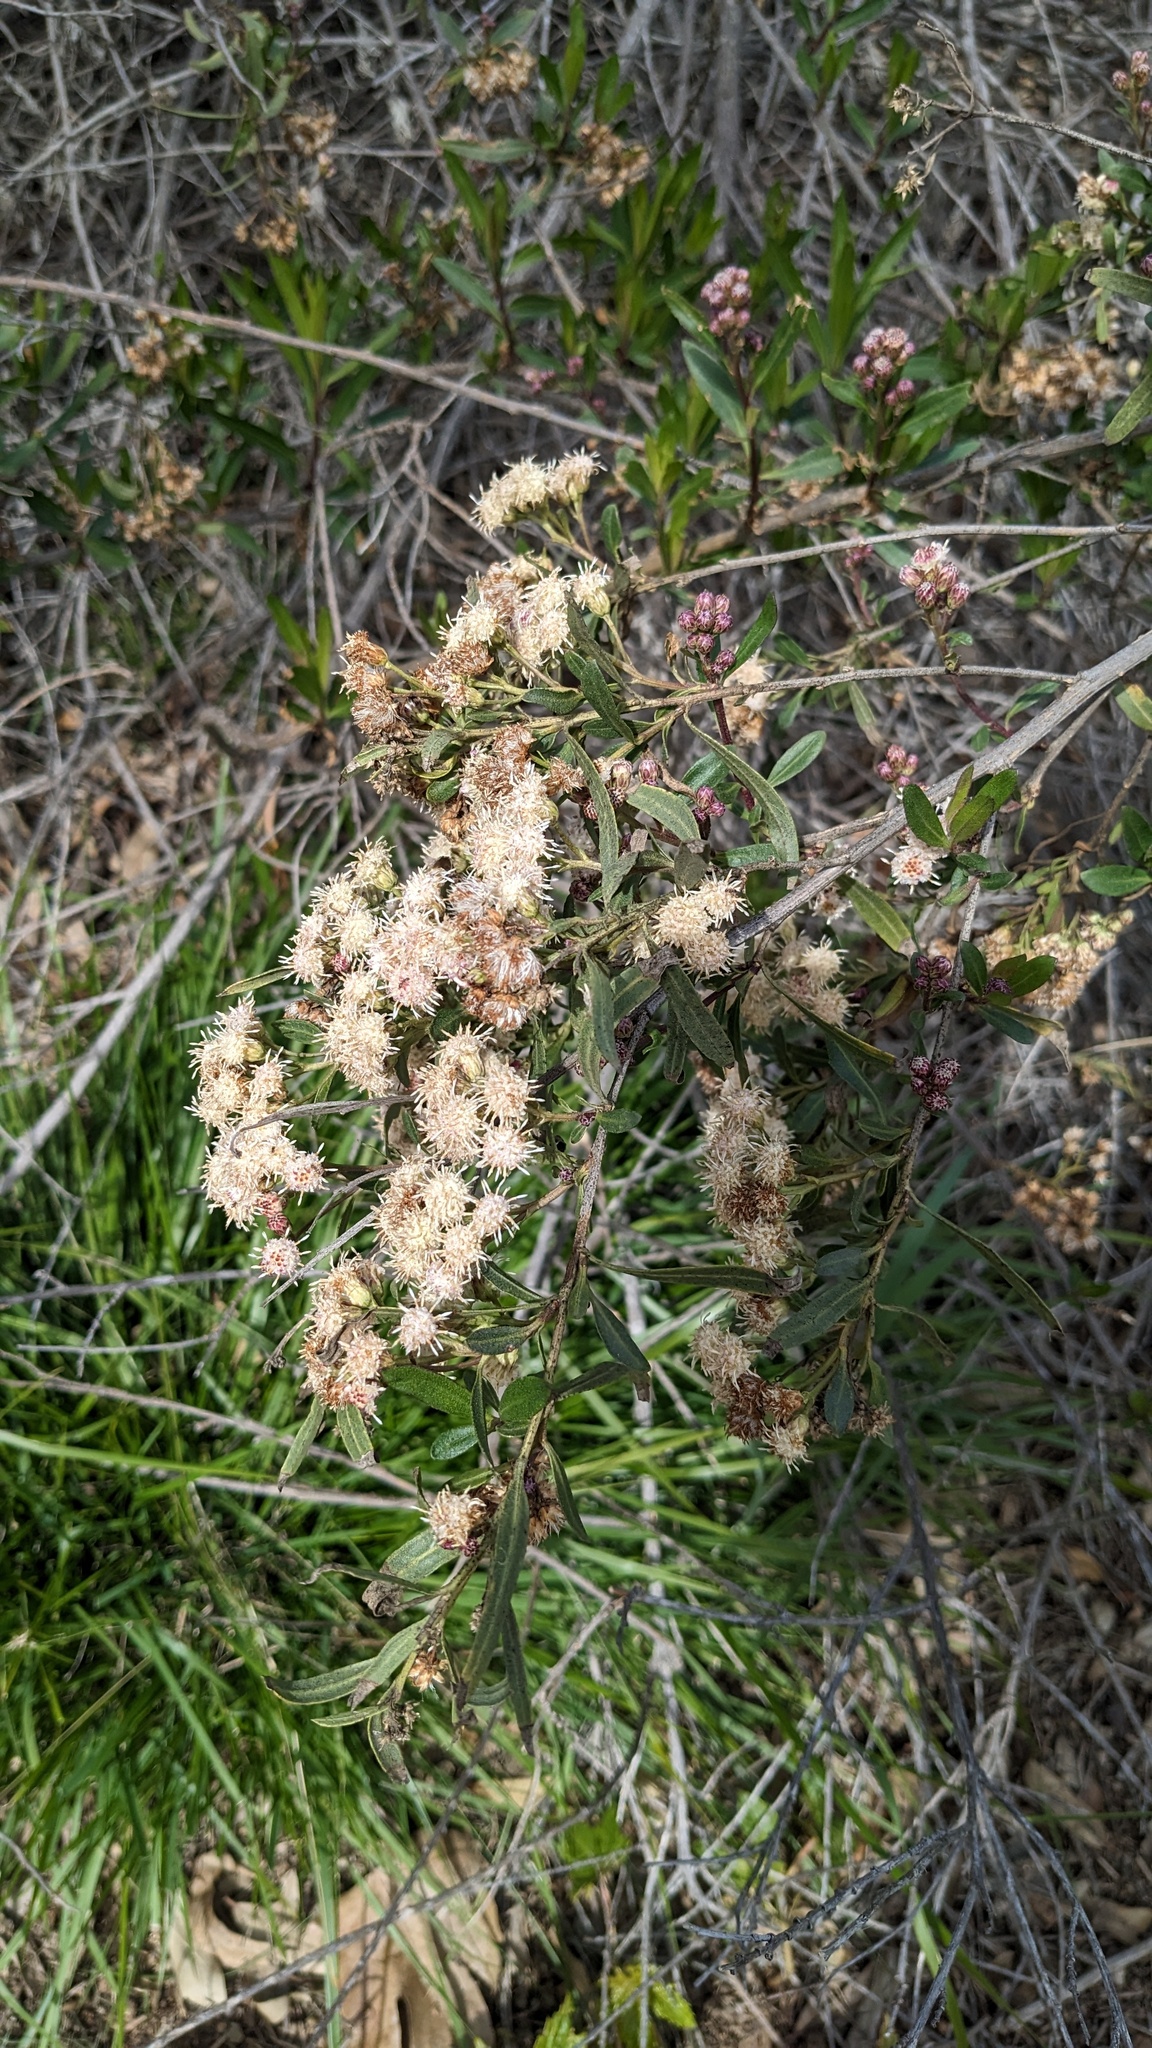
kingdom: Plantae
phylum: Tracheophyta
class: Magnoliopsida
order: Asterales
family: Asteraceae
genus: Baccharis
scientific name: Baccharis salicifolia
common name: Sticky baccharis
